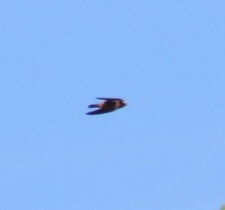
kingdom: Animalia
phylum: Chordata
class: Aves
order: Passeriformes
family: Hirundinidae
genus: Petrochelidon
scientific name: Petrochelidon pyrrhonota
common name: American cliff swallow
